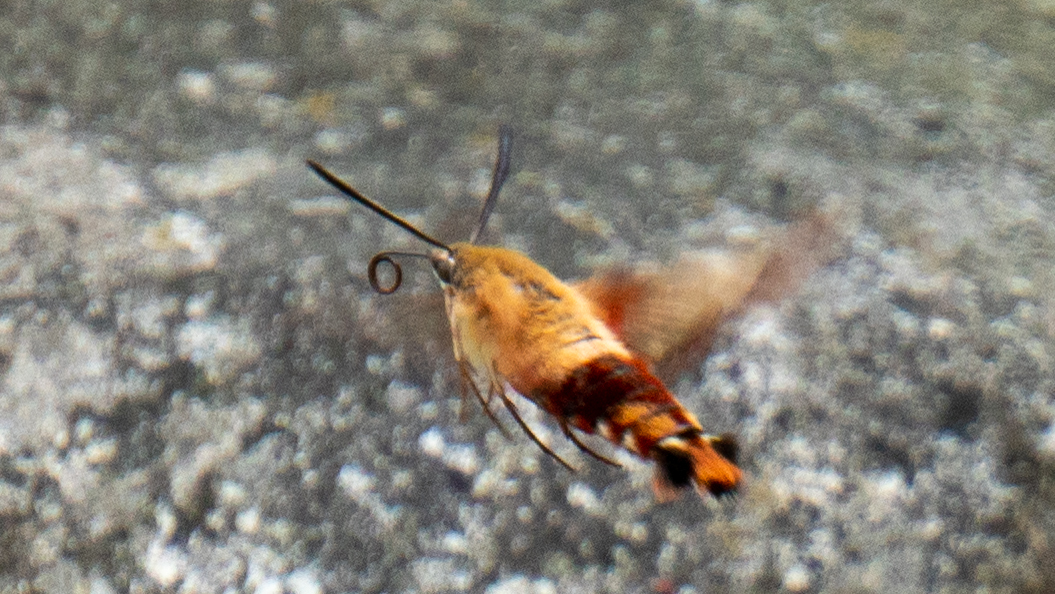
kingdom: Animalia
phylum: Arthropoda
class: Insecta
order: Lepidoptera
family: Sphingidae
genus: Hemaris
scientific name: Hemaris thysbe
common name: Common clear-wing
